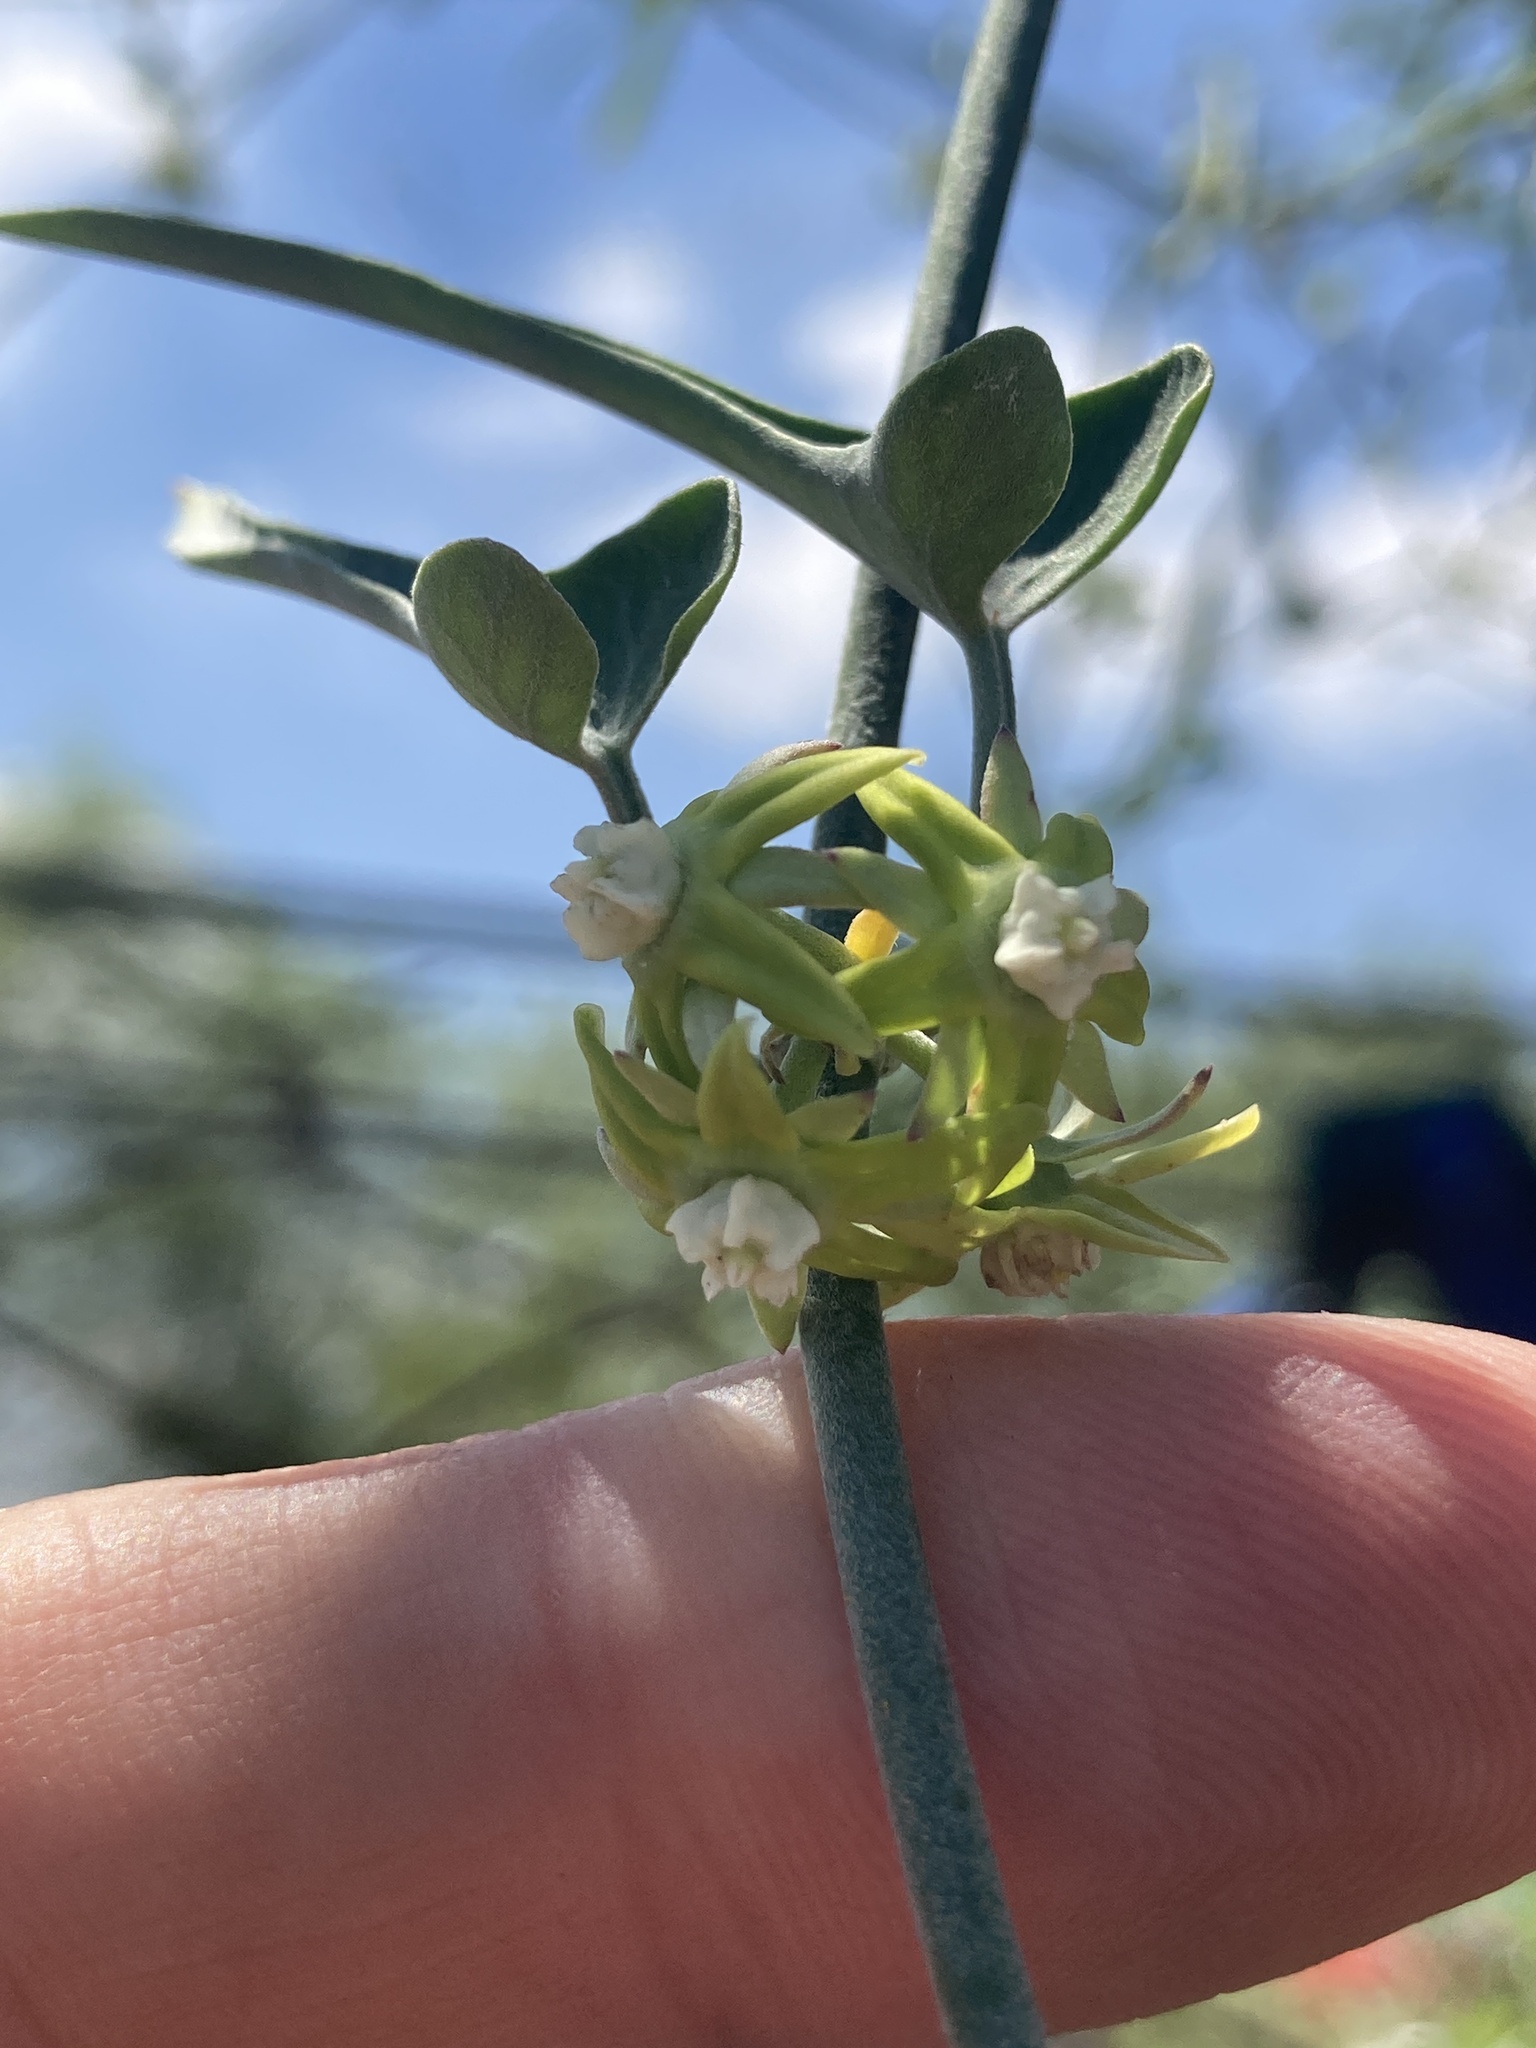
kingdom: Plantae
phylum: Tracheophyta
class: Magnoliopsida
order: Gentianales
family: Apocynaceae
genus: Araujia
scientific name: Araujia brachystephana
